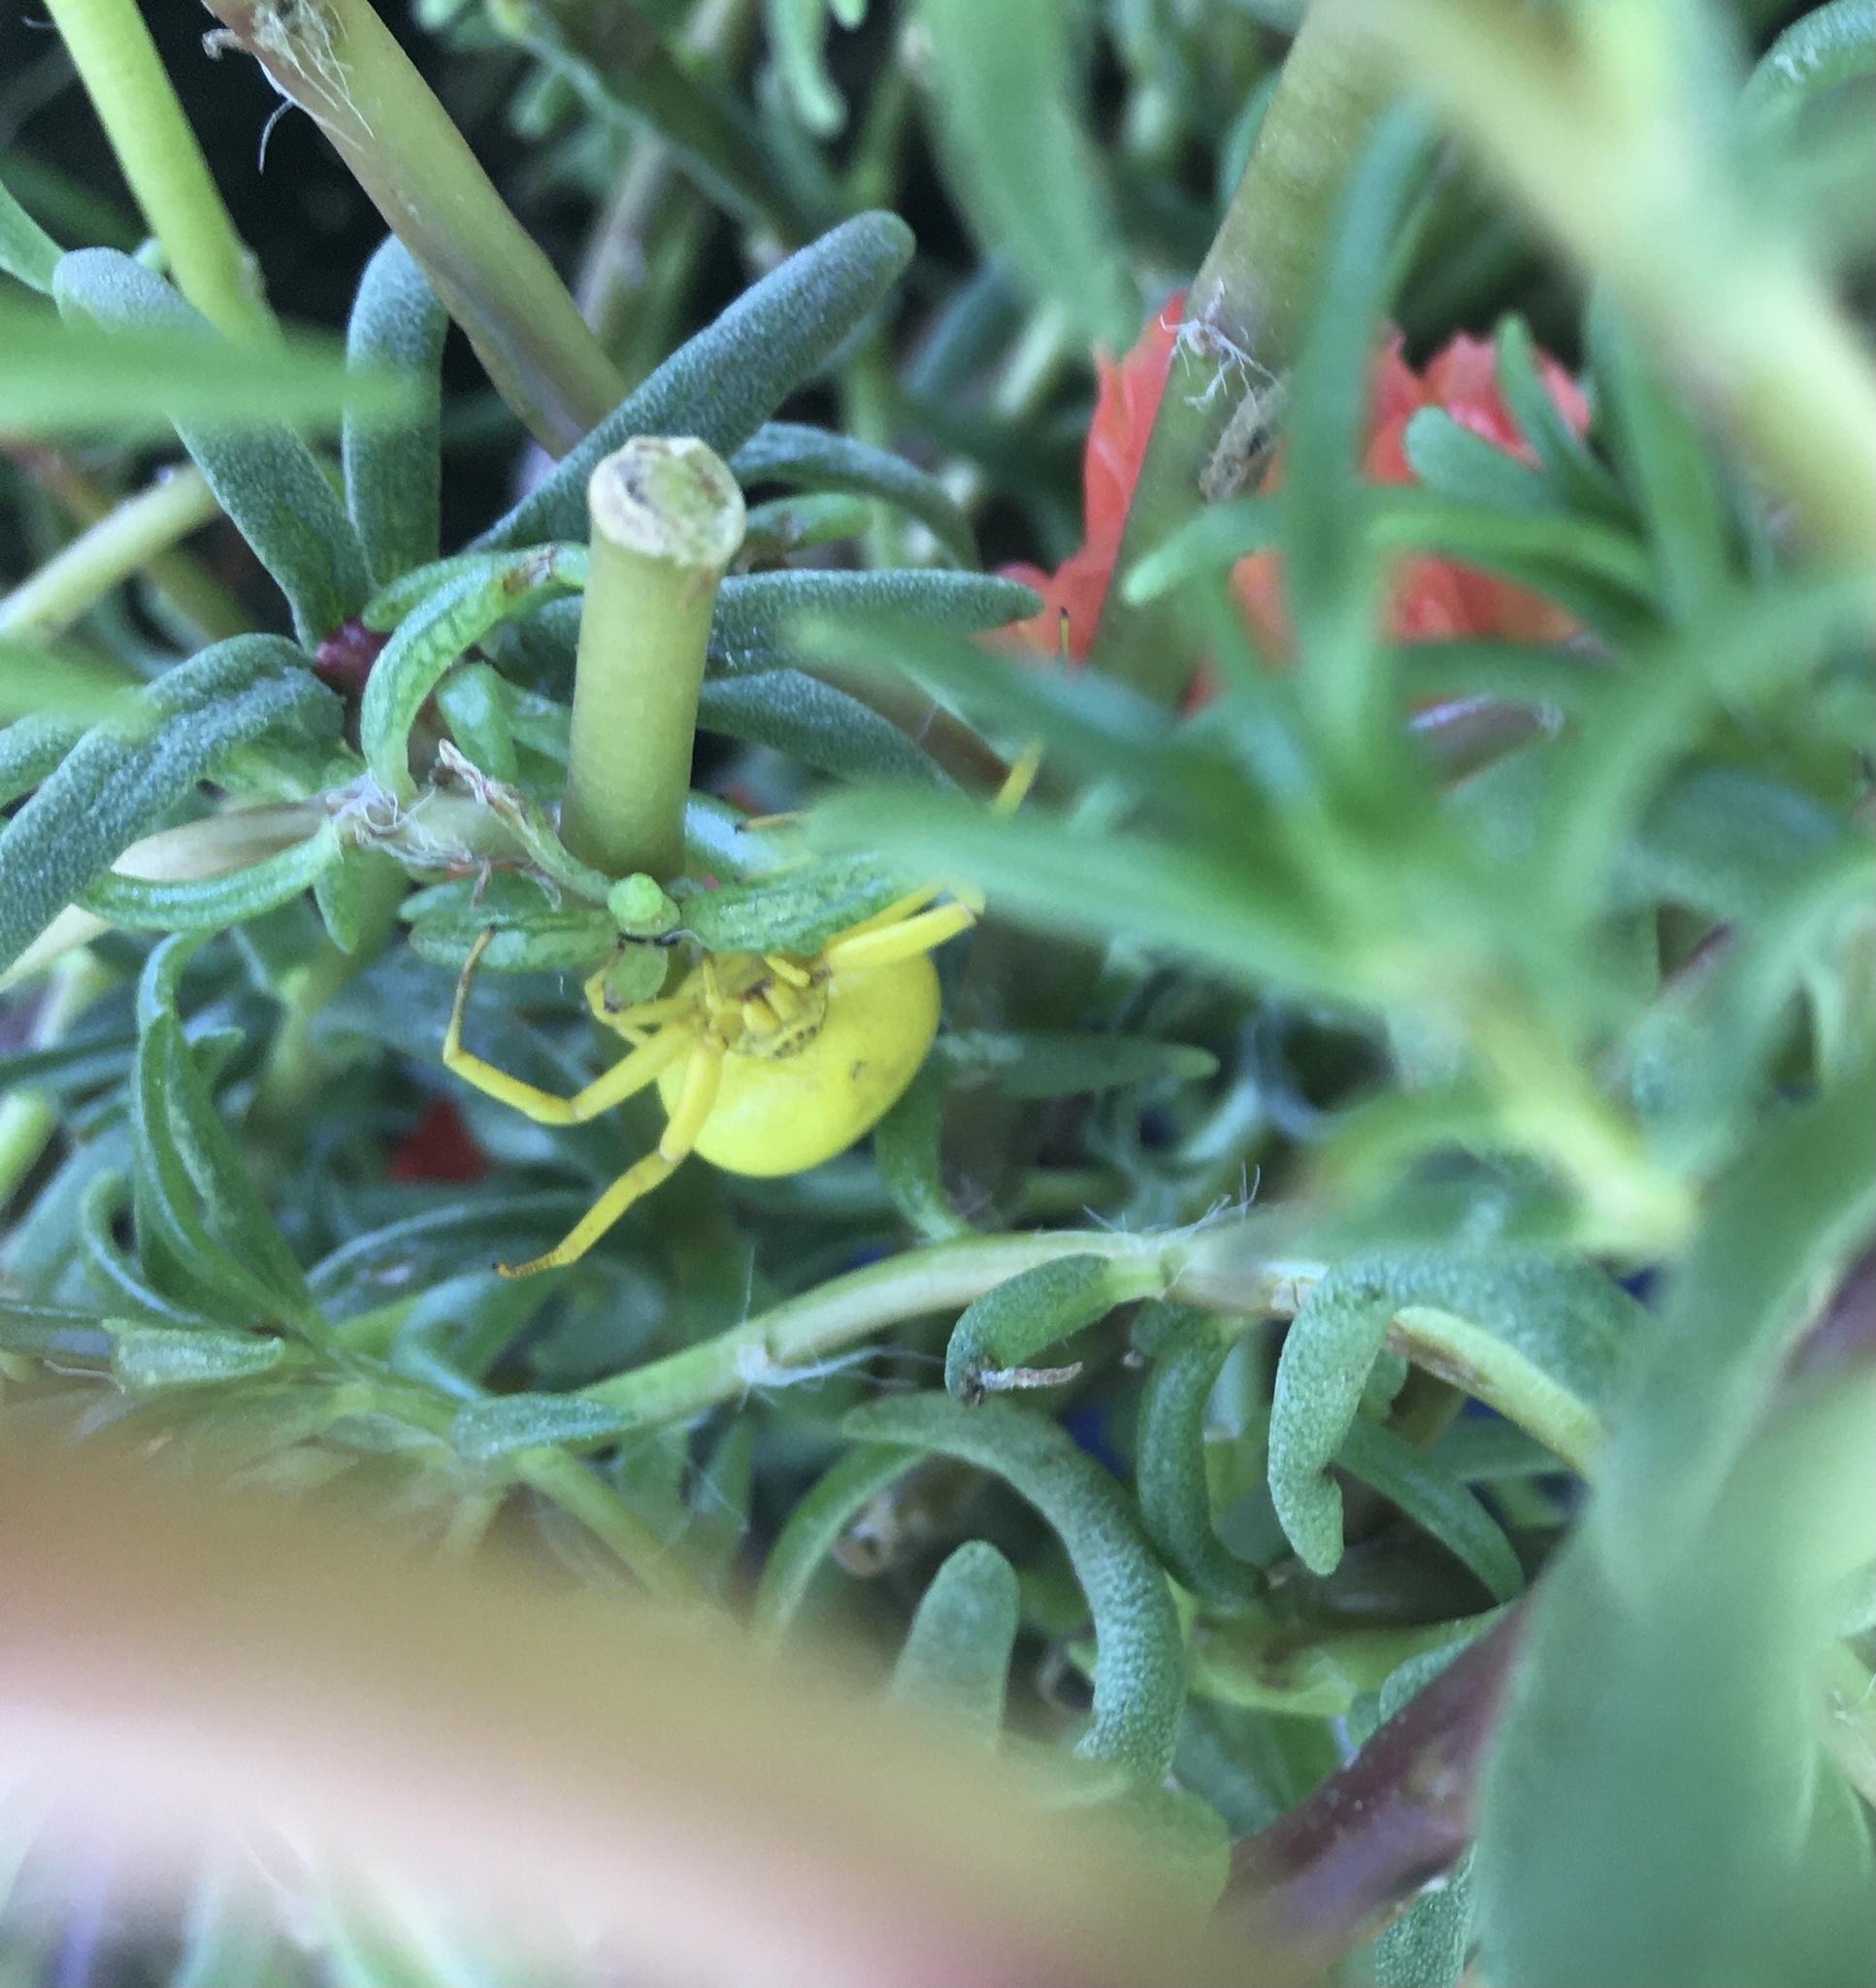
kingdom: Animalia
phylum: Arthropoda
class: Arachnida
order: Araneae
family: Thomisidae
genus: Misumenoides
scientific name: Misumenoides formosipes
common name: White-banded crab spider
